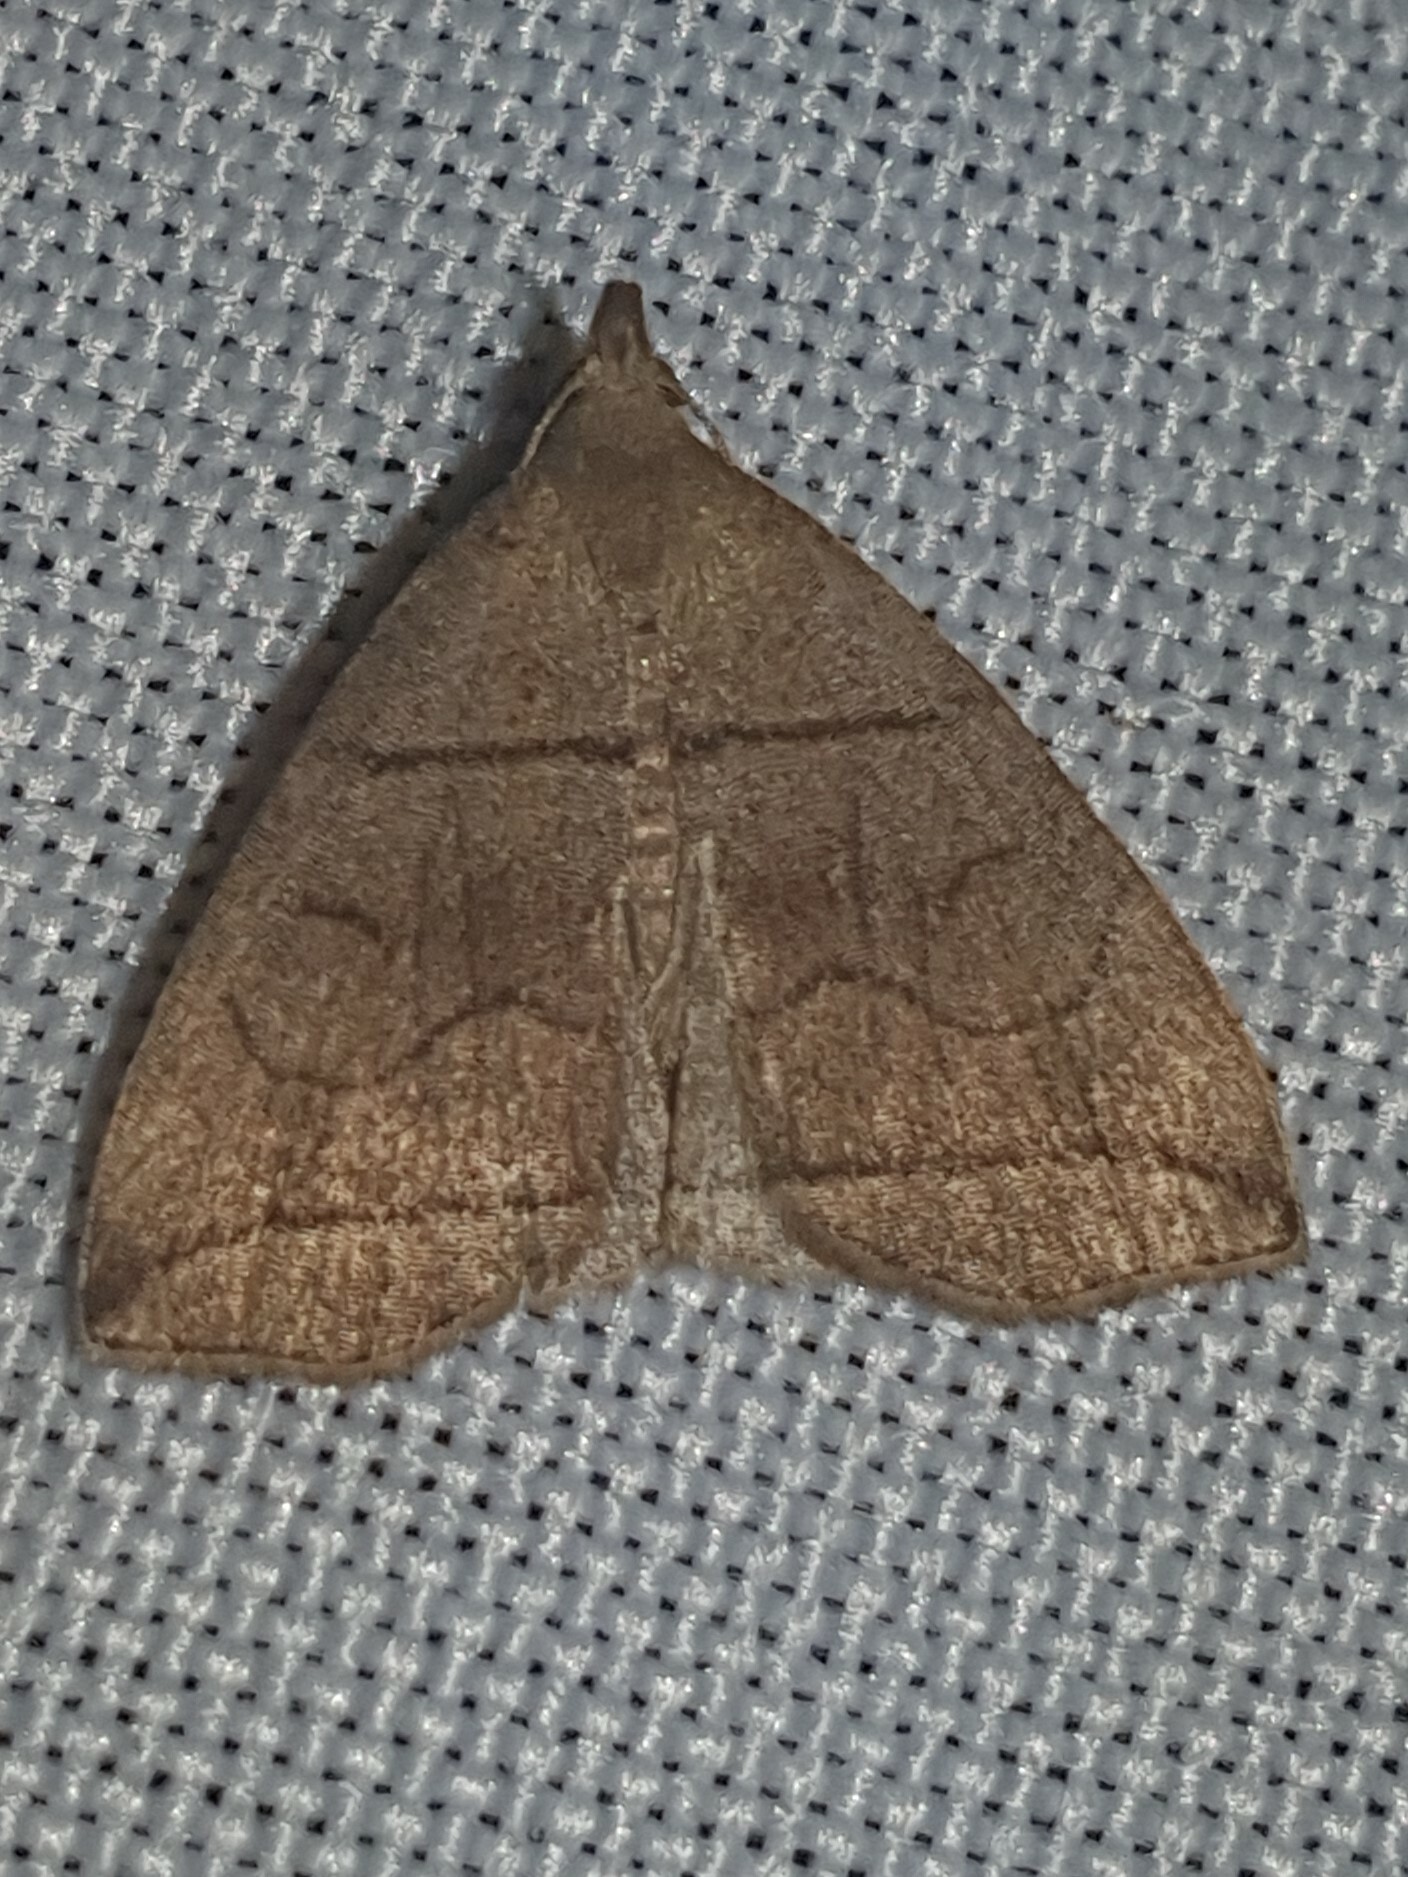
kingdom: Animalia
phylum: Arthropoda
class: Insecta
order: Lepidoptera
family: Erebidae
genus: Herminia
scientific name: Herminia grisealis
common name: Small fan-foot
